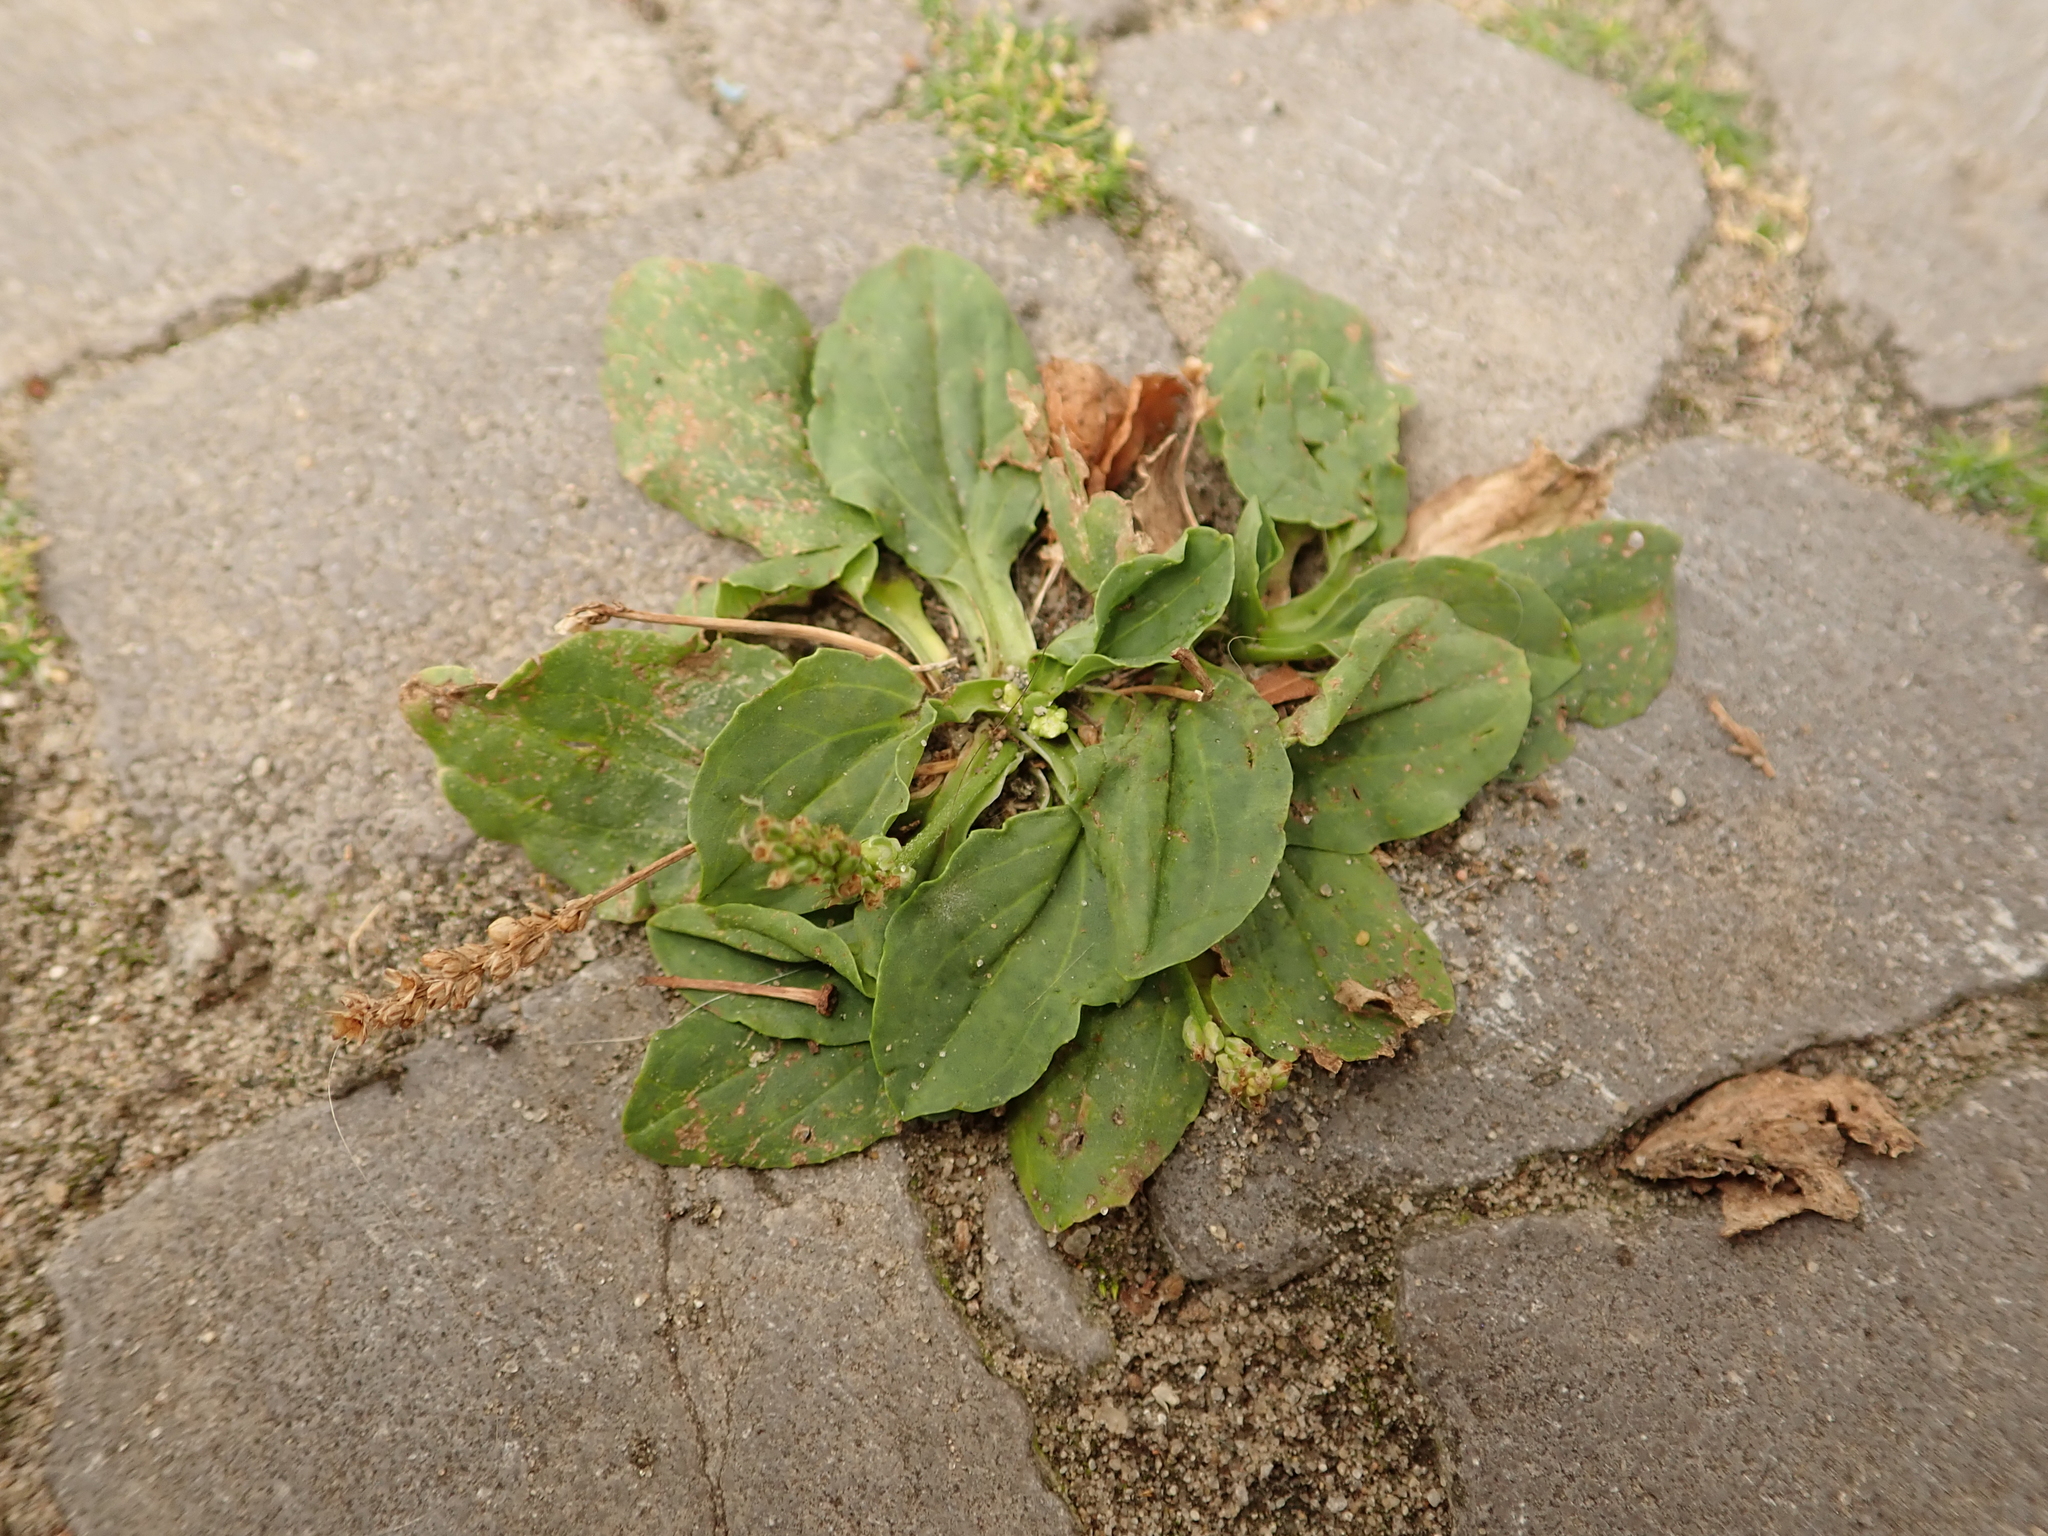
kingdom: Plantae
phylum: Tracheophyta
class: Magnoliopsida
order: Lamiales
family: Plantaginaceae
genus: Plantago
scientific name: Plantago major
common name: Common plantain
